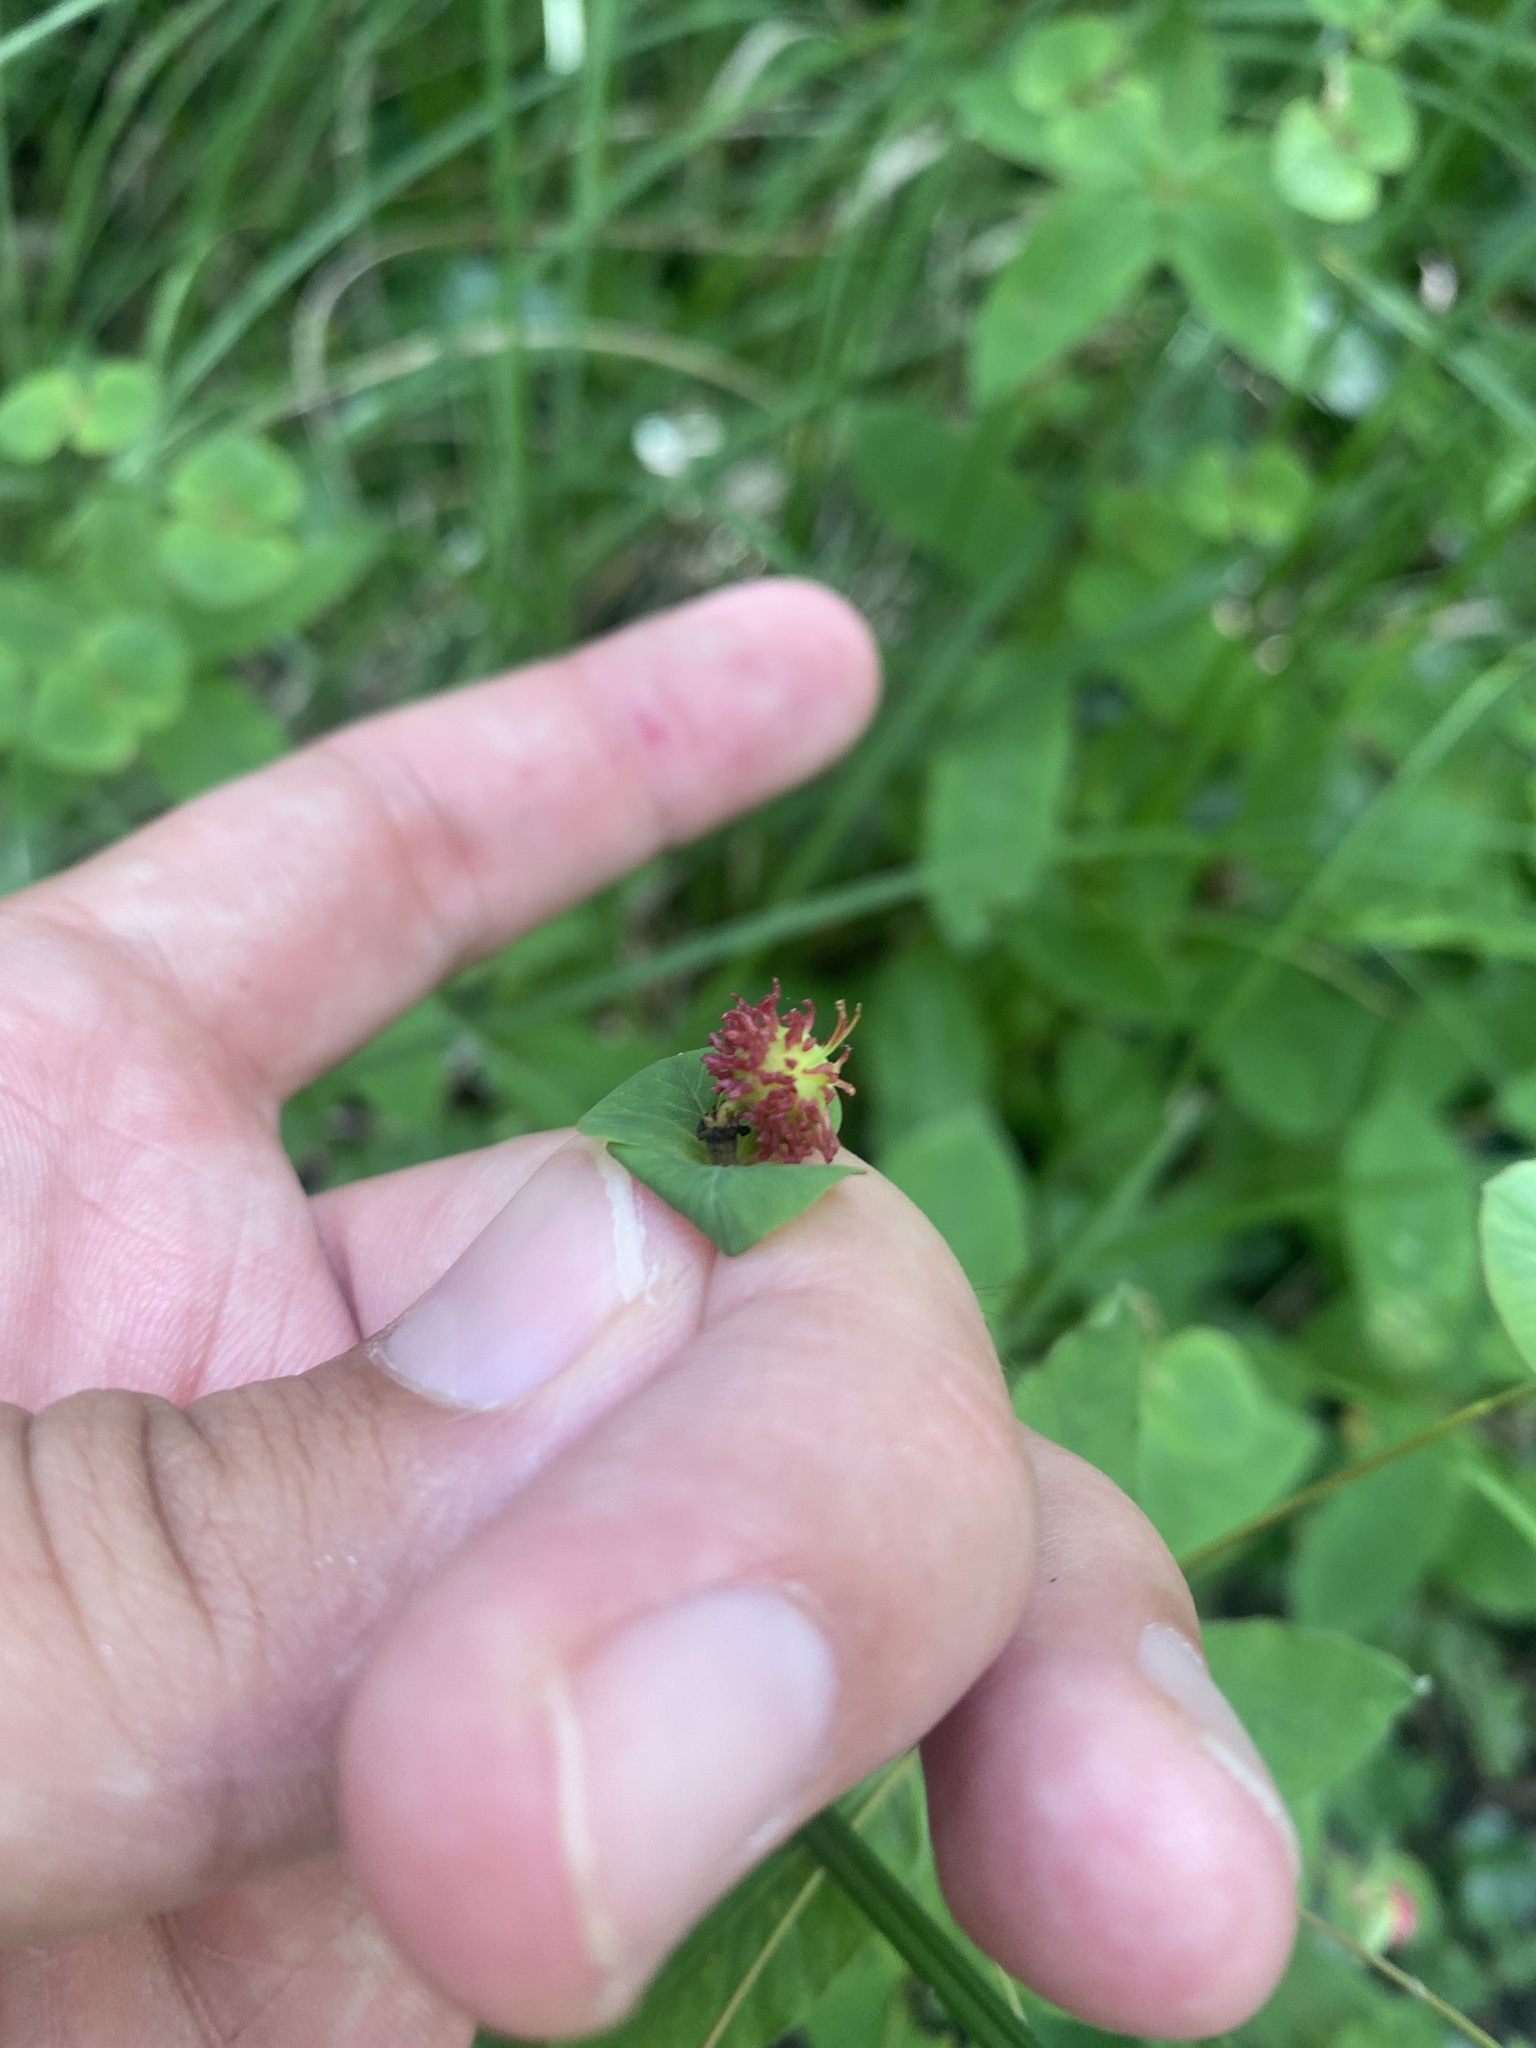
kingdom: Plantae
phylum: Tracheophyta
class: Magnoliopsida
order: Malpighiales
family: Euphorbiaceae
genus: Euphorbia
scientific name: Euphorbia squamosa
